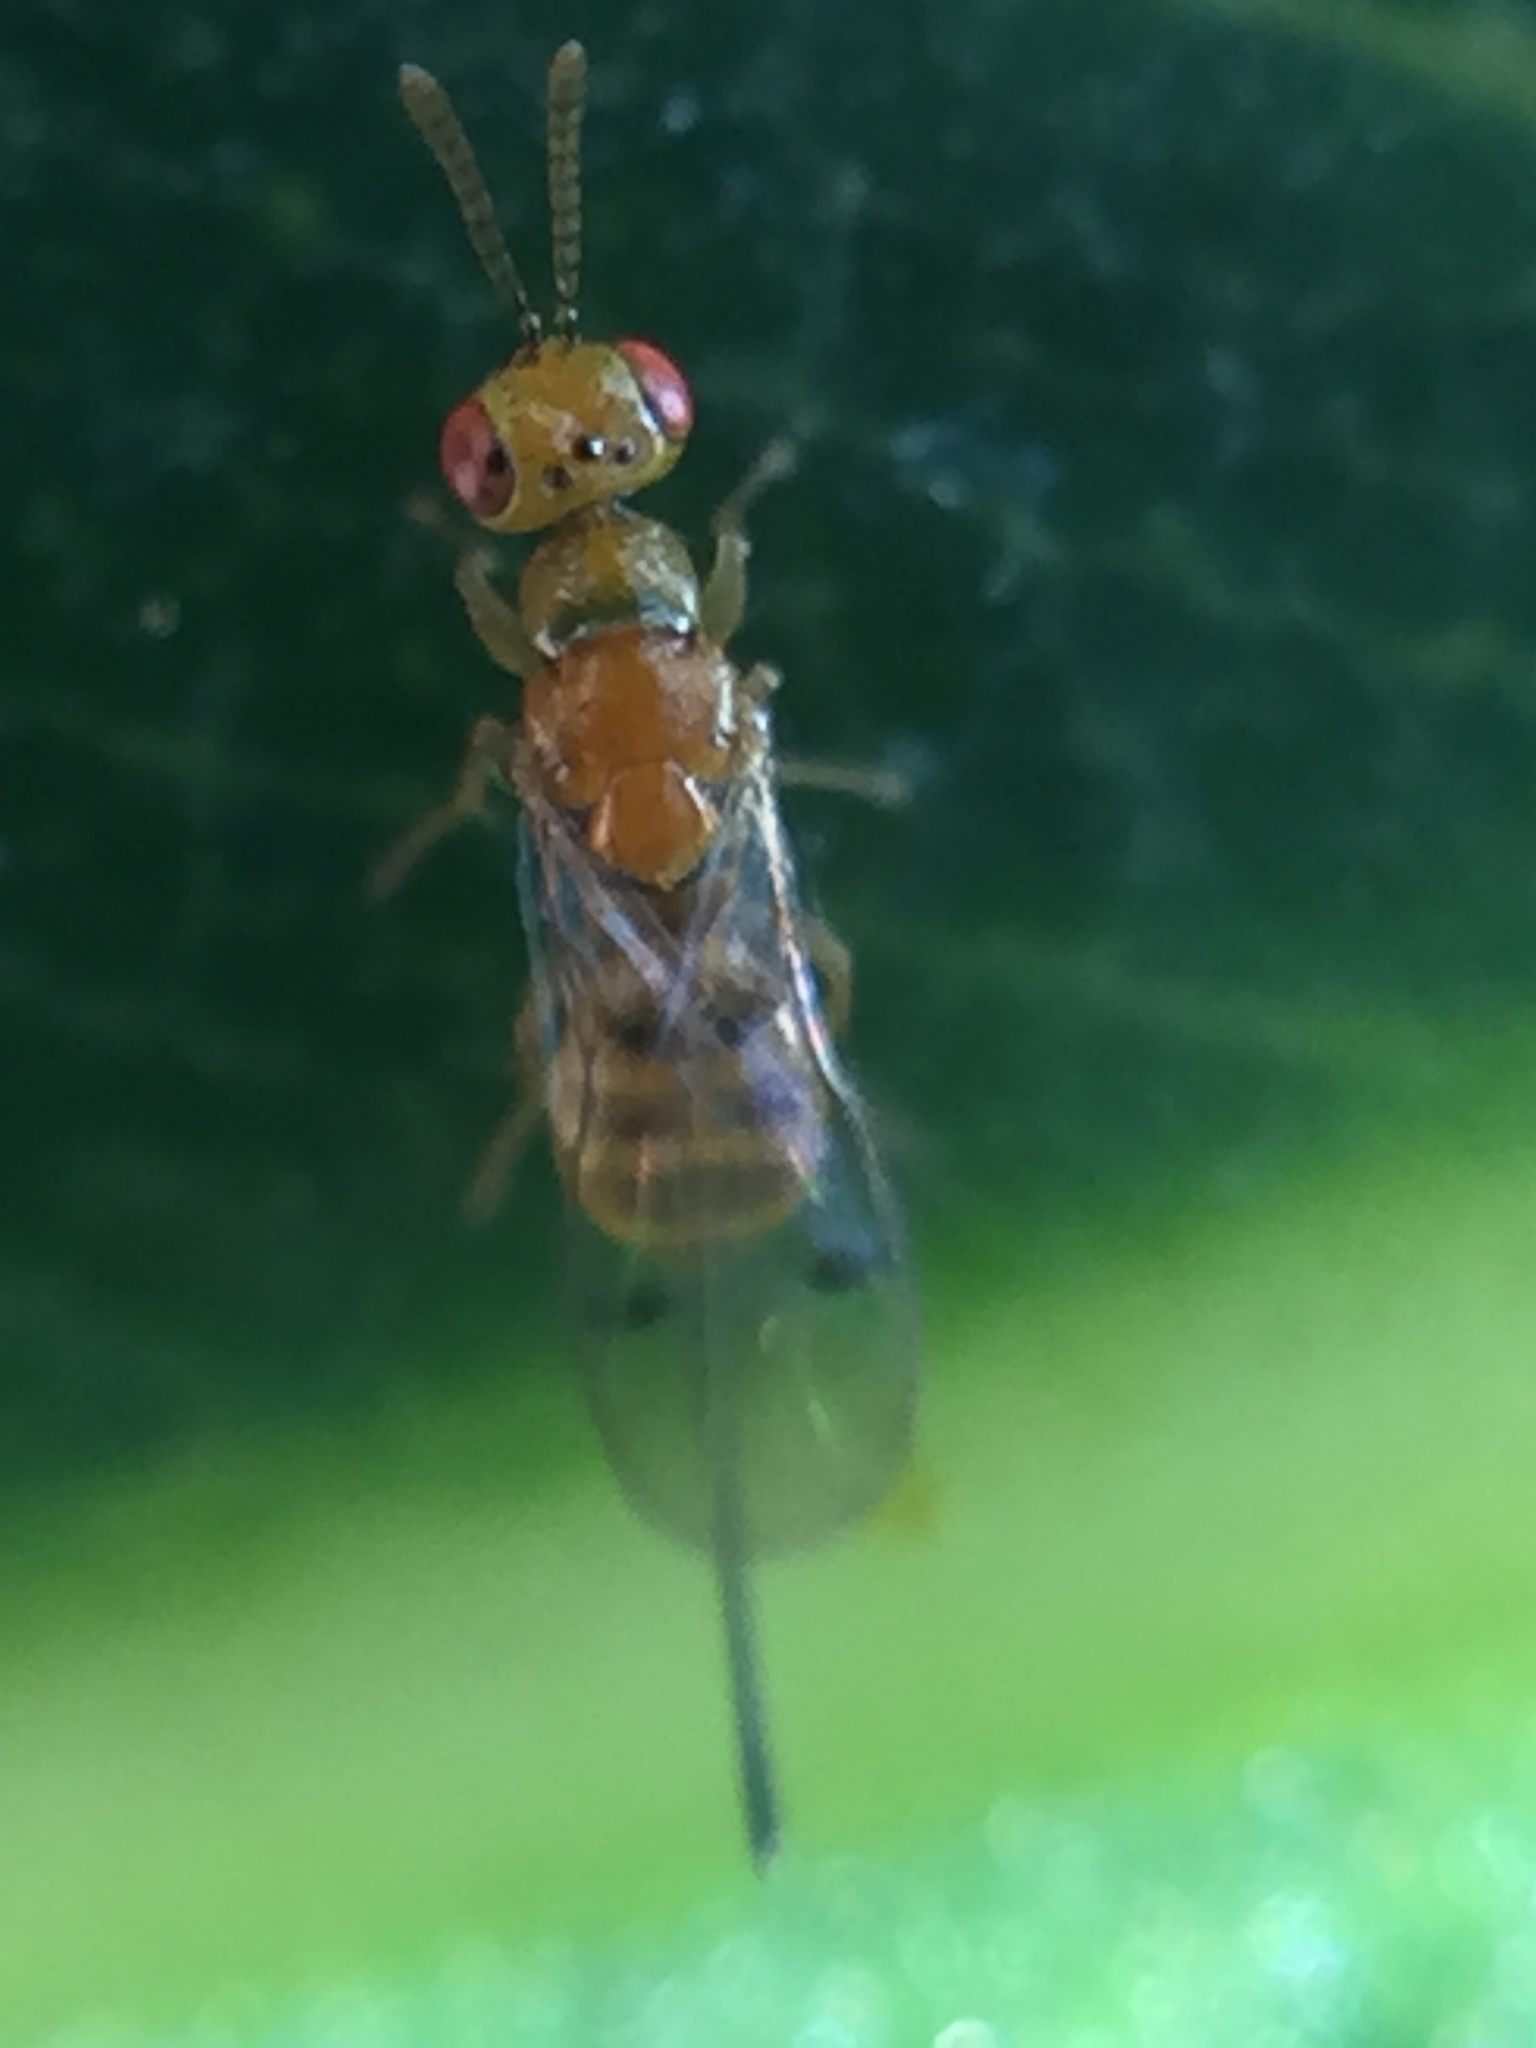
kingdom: Animalia
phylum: Arthropoda
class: Insecta
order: Hymenoptera
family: Torymidae
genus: Megastigmus
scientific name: Megastigmus
